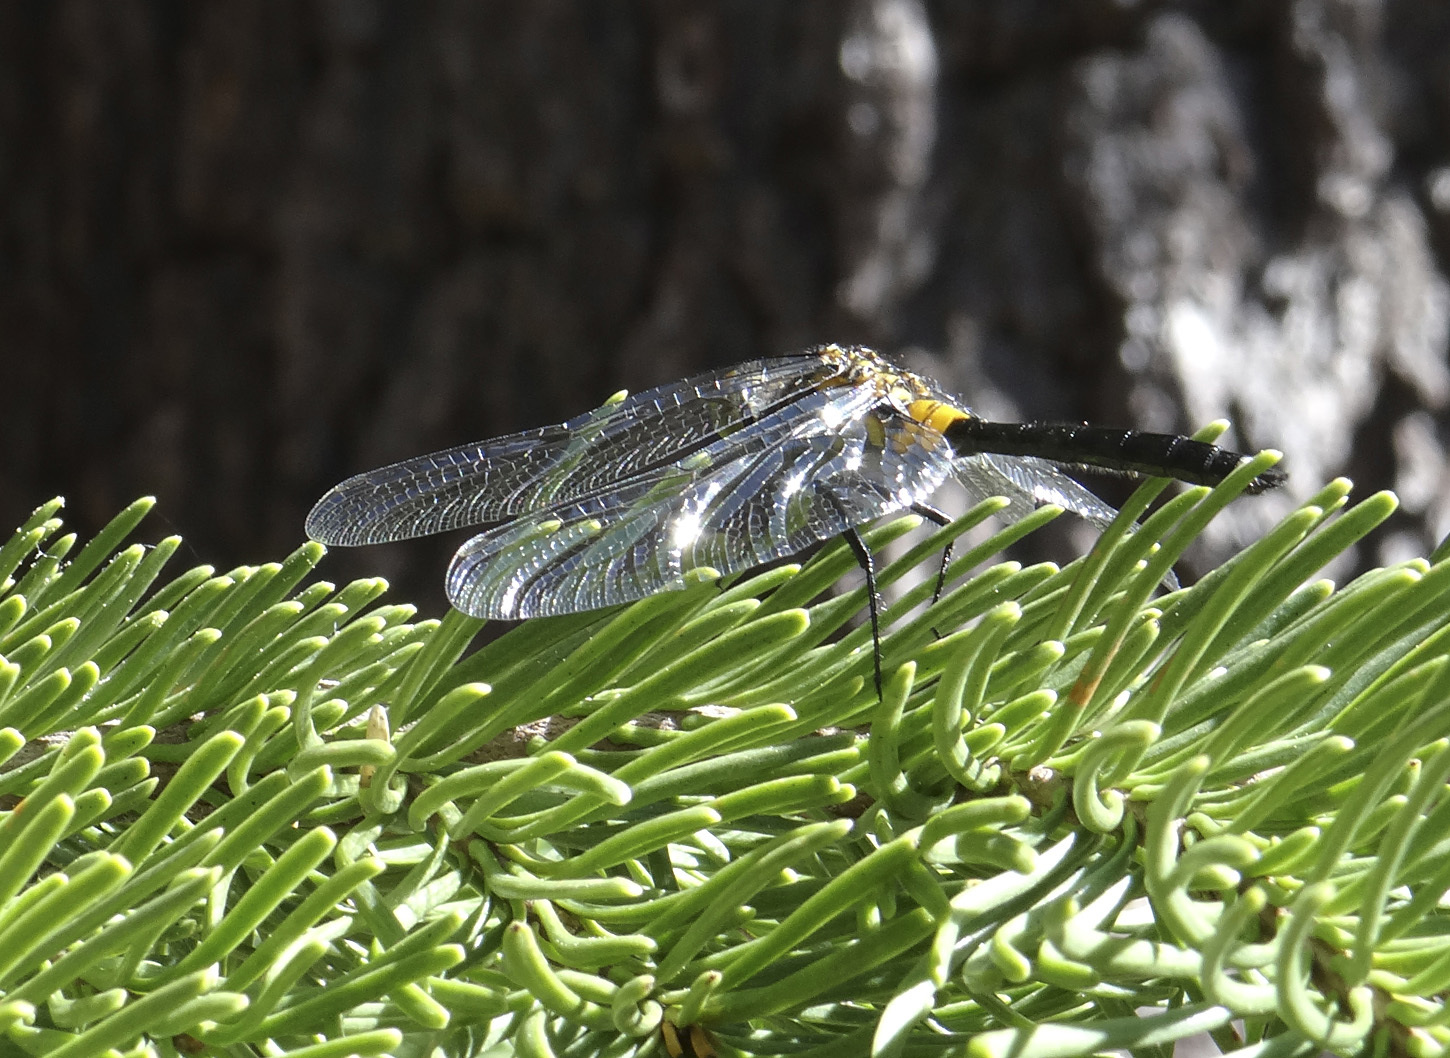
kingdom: Animalia
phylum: Arthropoda
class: Insecta
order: Odonata
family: Libellulidae
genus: Leucorrhinia
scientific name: Leucorrhinia glacialis
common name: Crimson-ringed whiteface
